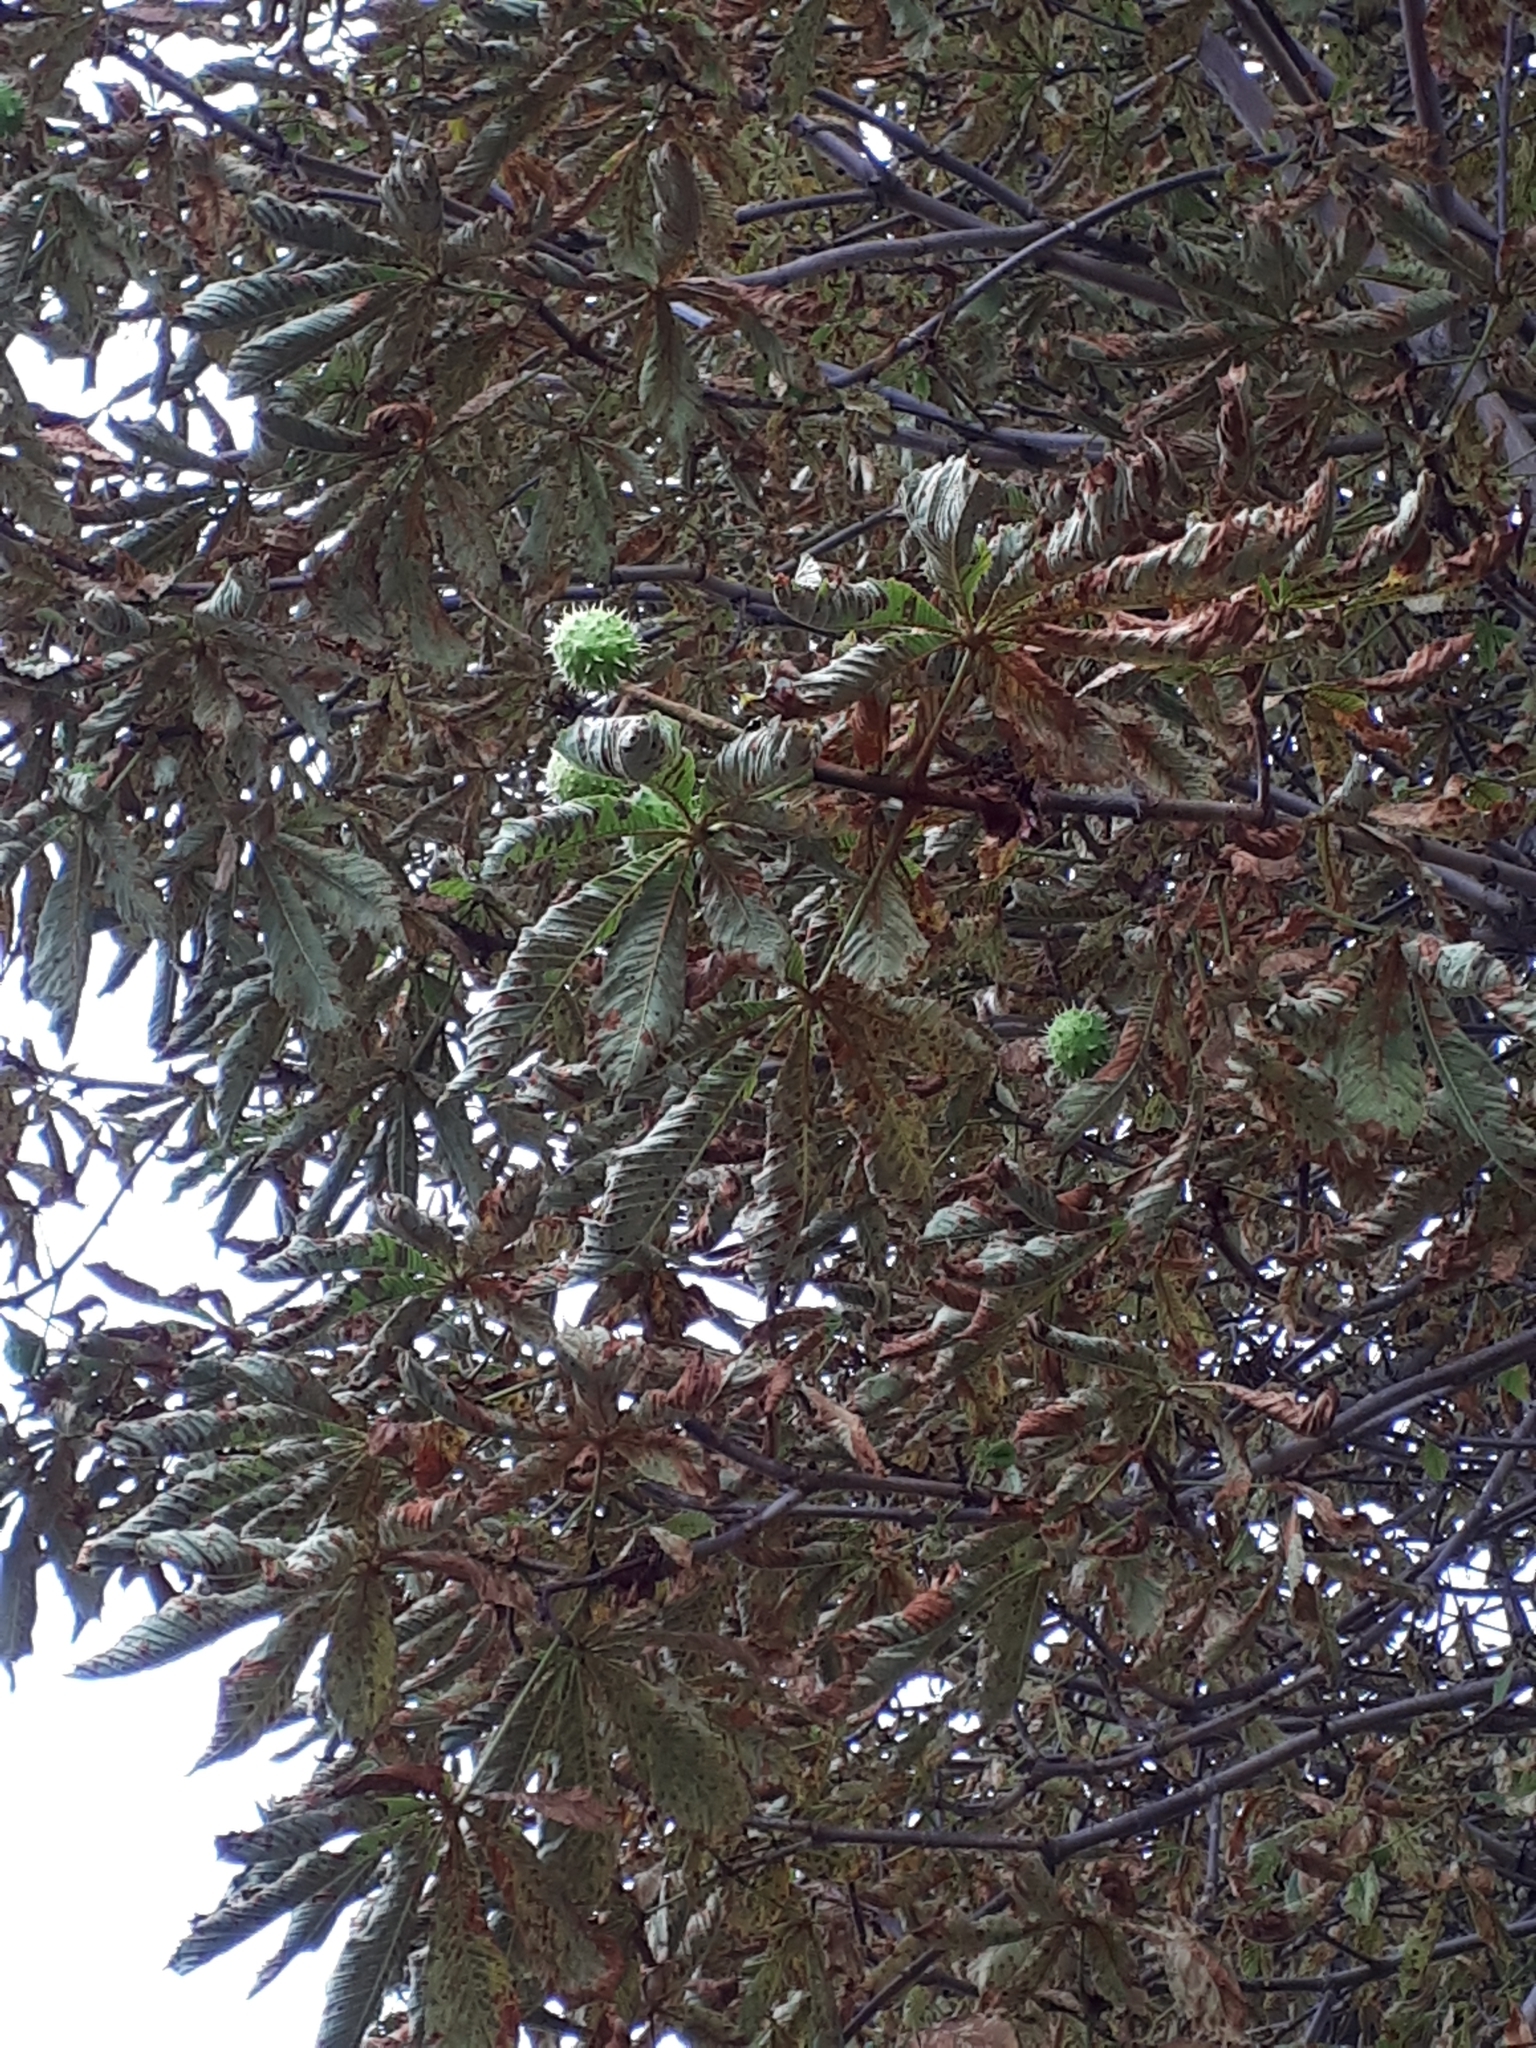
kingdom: Plantae
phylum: Tracheophyta
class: Magnoliopsida
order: Sapindales
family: Sapindaceae
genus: Aesculus
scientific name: Aesculus hippocastanum
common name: Horse-chestnut
